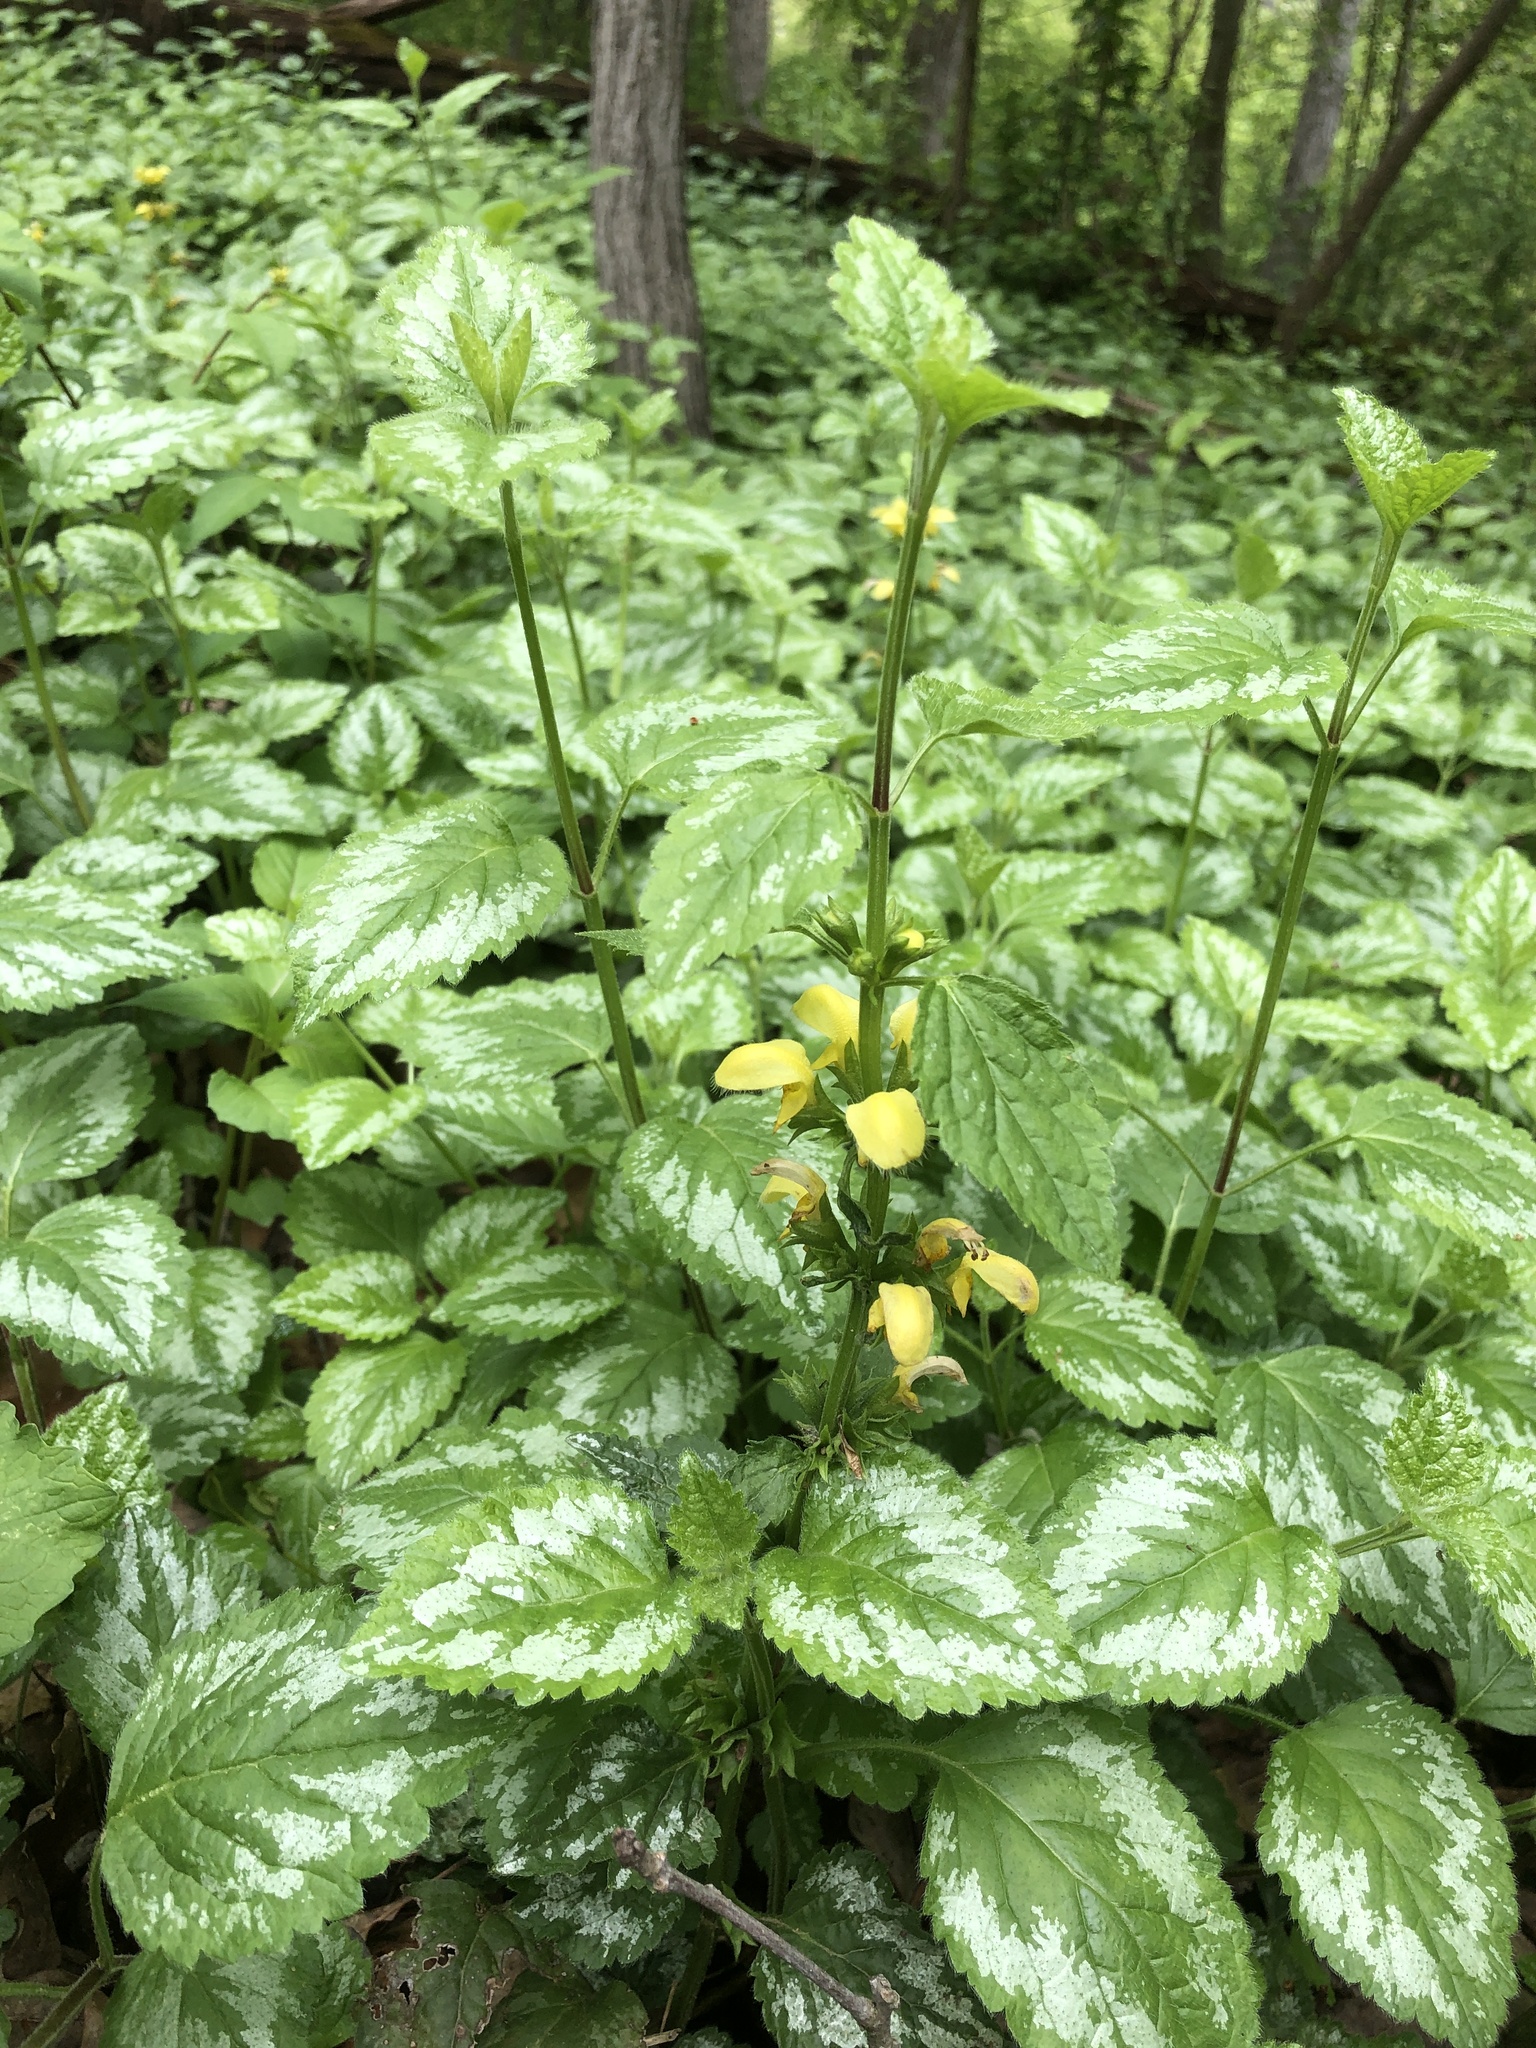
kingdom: Plantae
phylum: Tracheophyta
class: Magnoliopsida
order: Lamiales
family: Lamiaceae
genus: Lamium
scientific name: Lamium galeobdolon
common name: Yellow archangel
